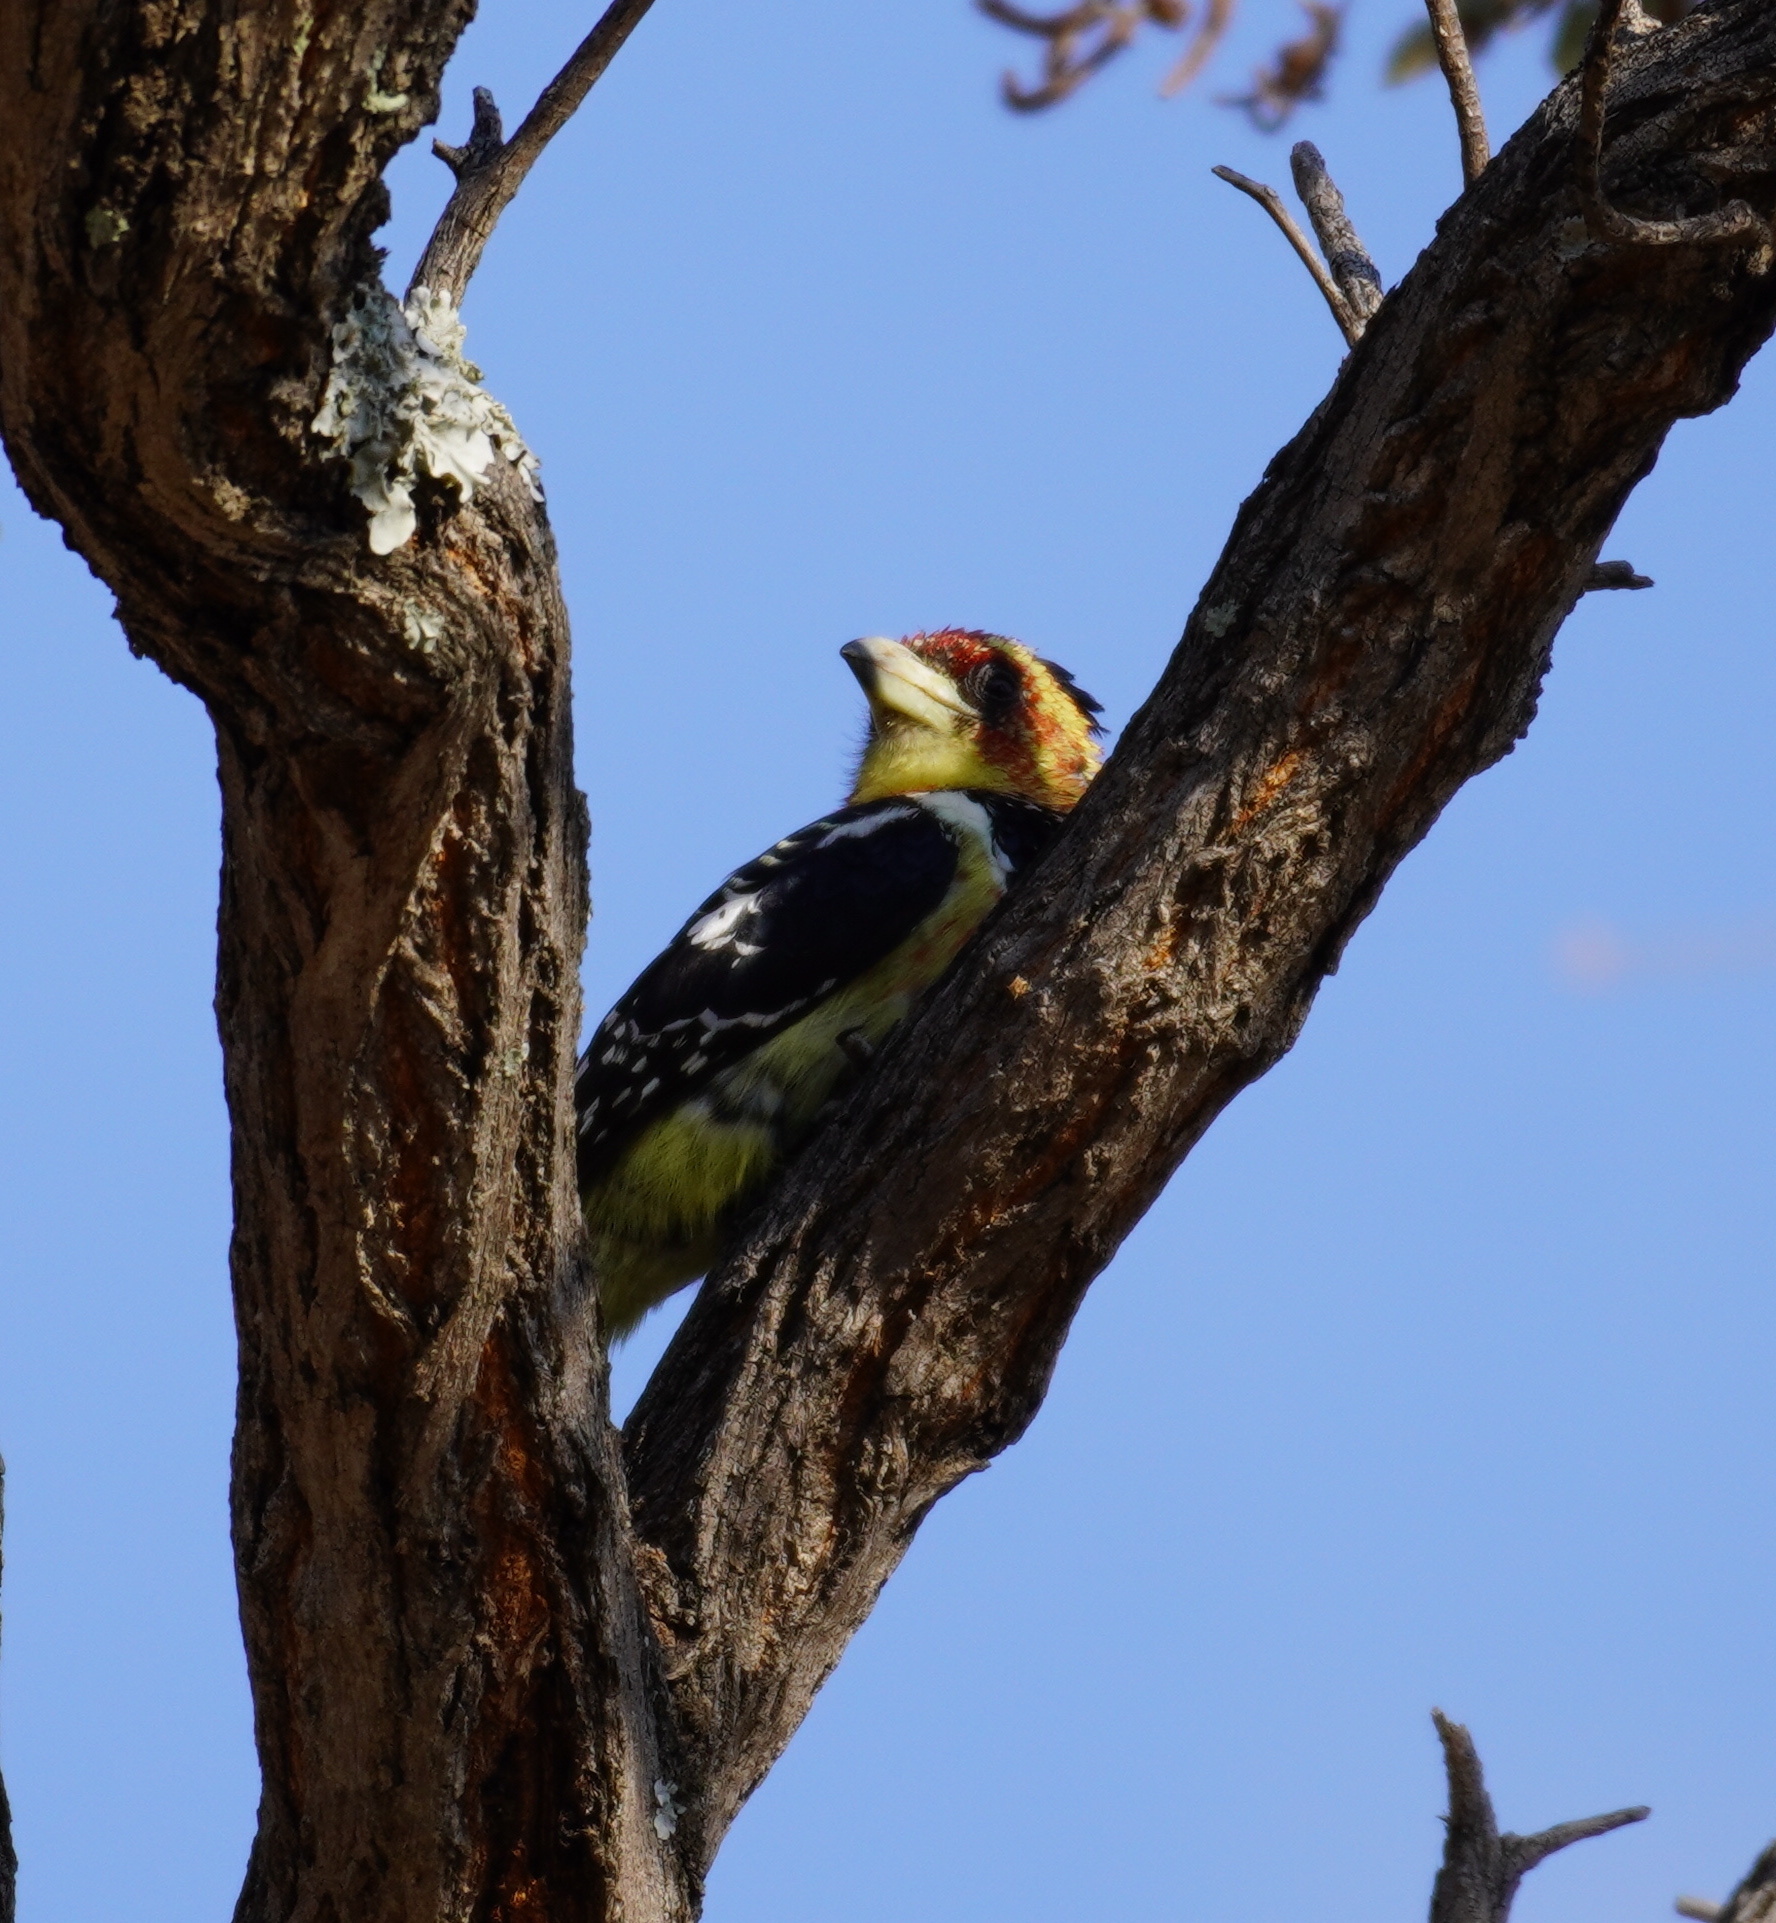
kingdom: Animalia
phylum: Chordata
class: Aves
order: Piciformes
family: Lybiidae
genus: Trachyphonus
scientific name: Trachyphonus vaillantii
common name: Crested barbet
